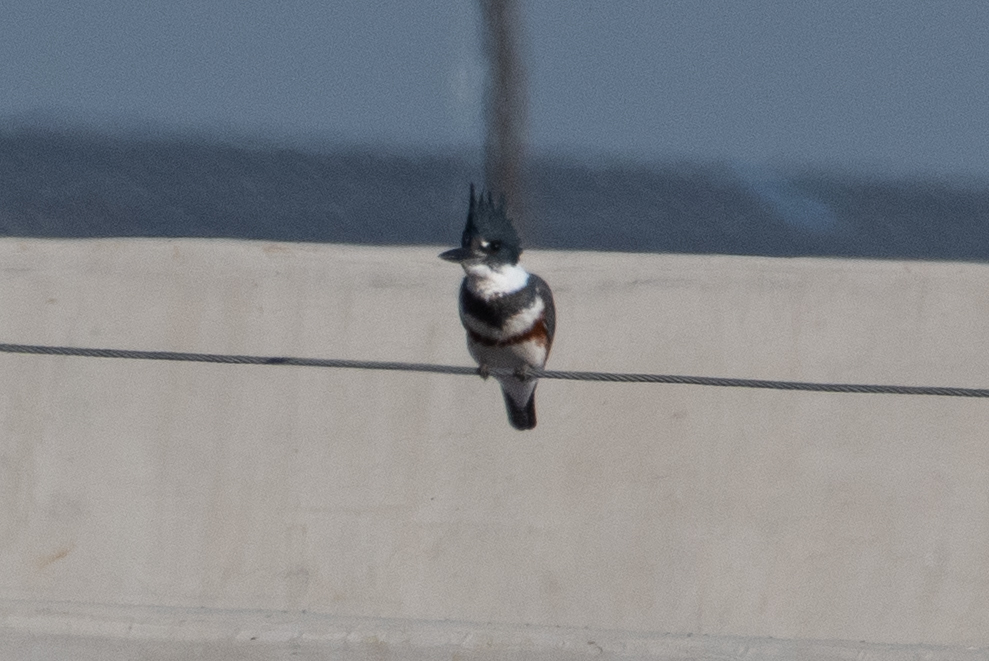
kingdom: Animalia
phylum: Chordata
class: Aves
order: Coraciiformes
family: Alcedinidae
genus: Megaceryle
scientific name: Megaceryle alcyon
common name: Belted kingfisher
